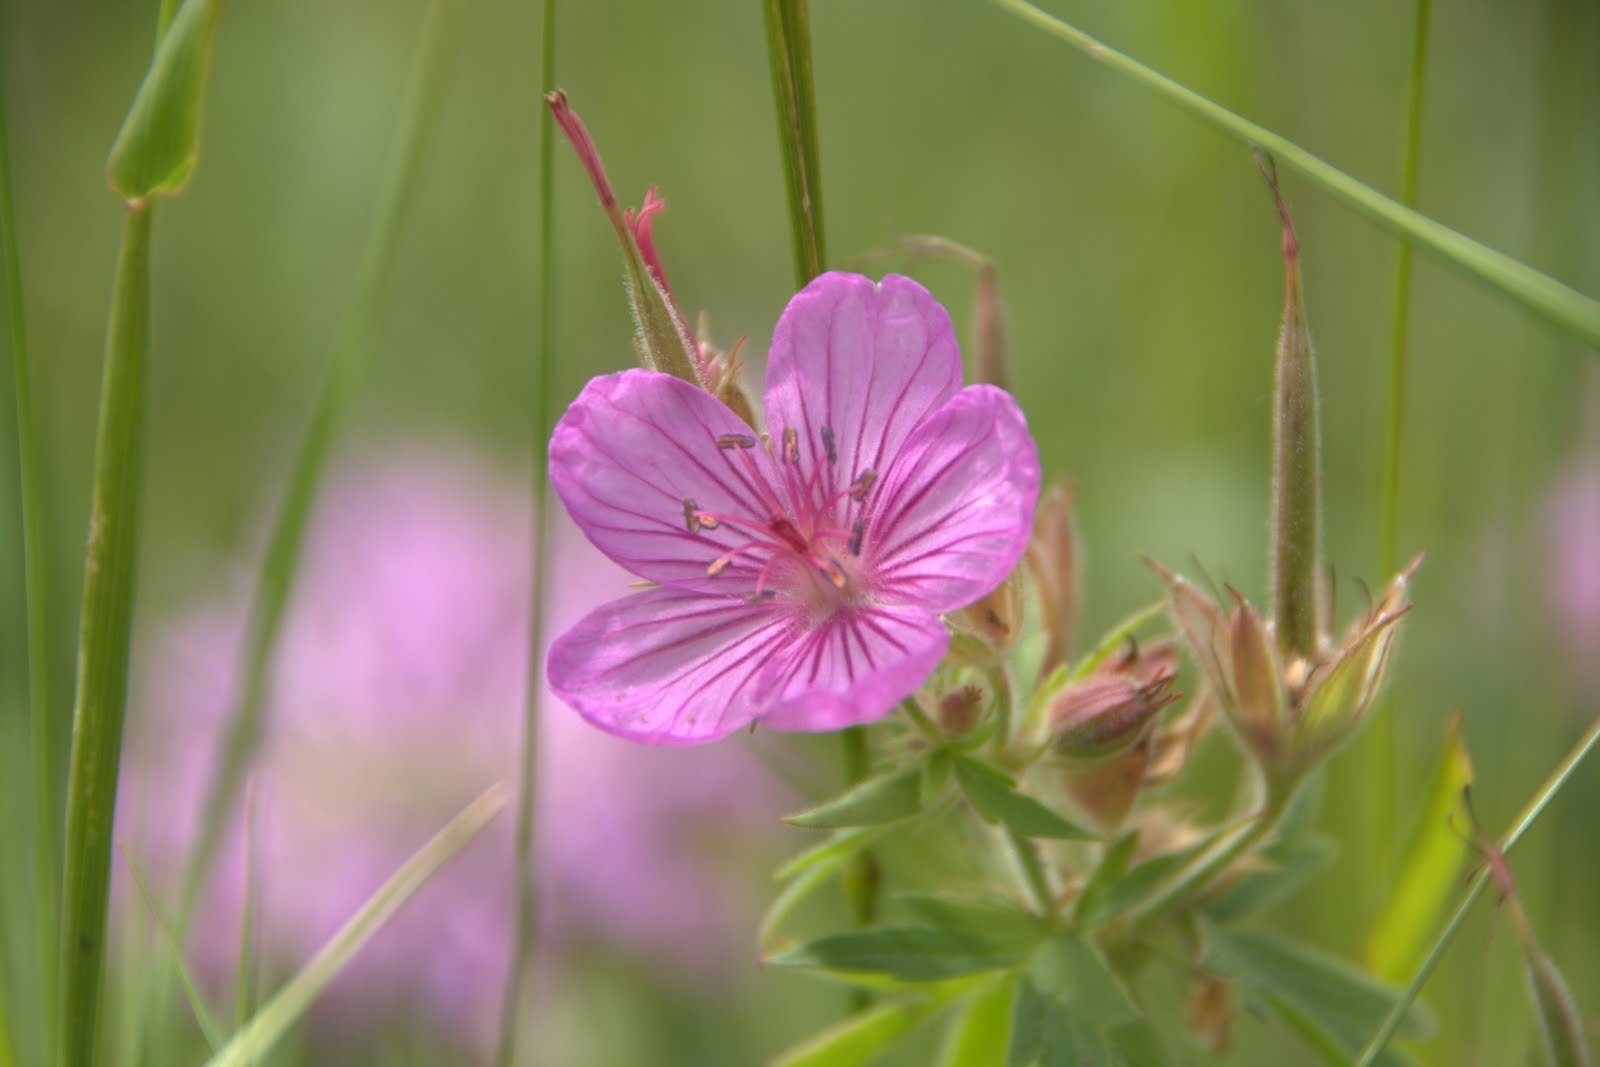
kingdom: Plantae
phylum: Tracheophyta
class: Magnoliopsida
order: Geraniales
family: Geraniaceae
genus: Geranium
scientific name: Geranium viscosissimum
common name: Purple geranium
